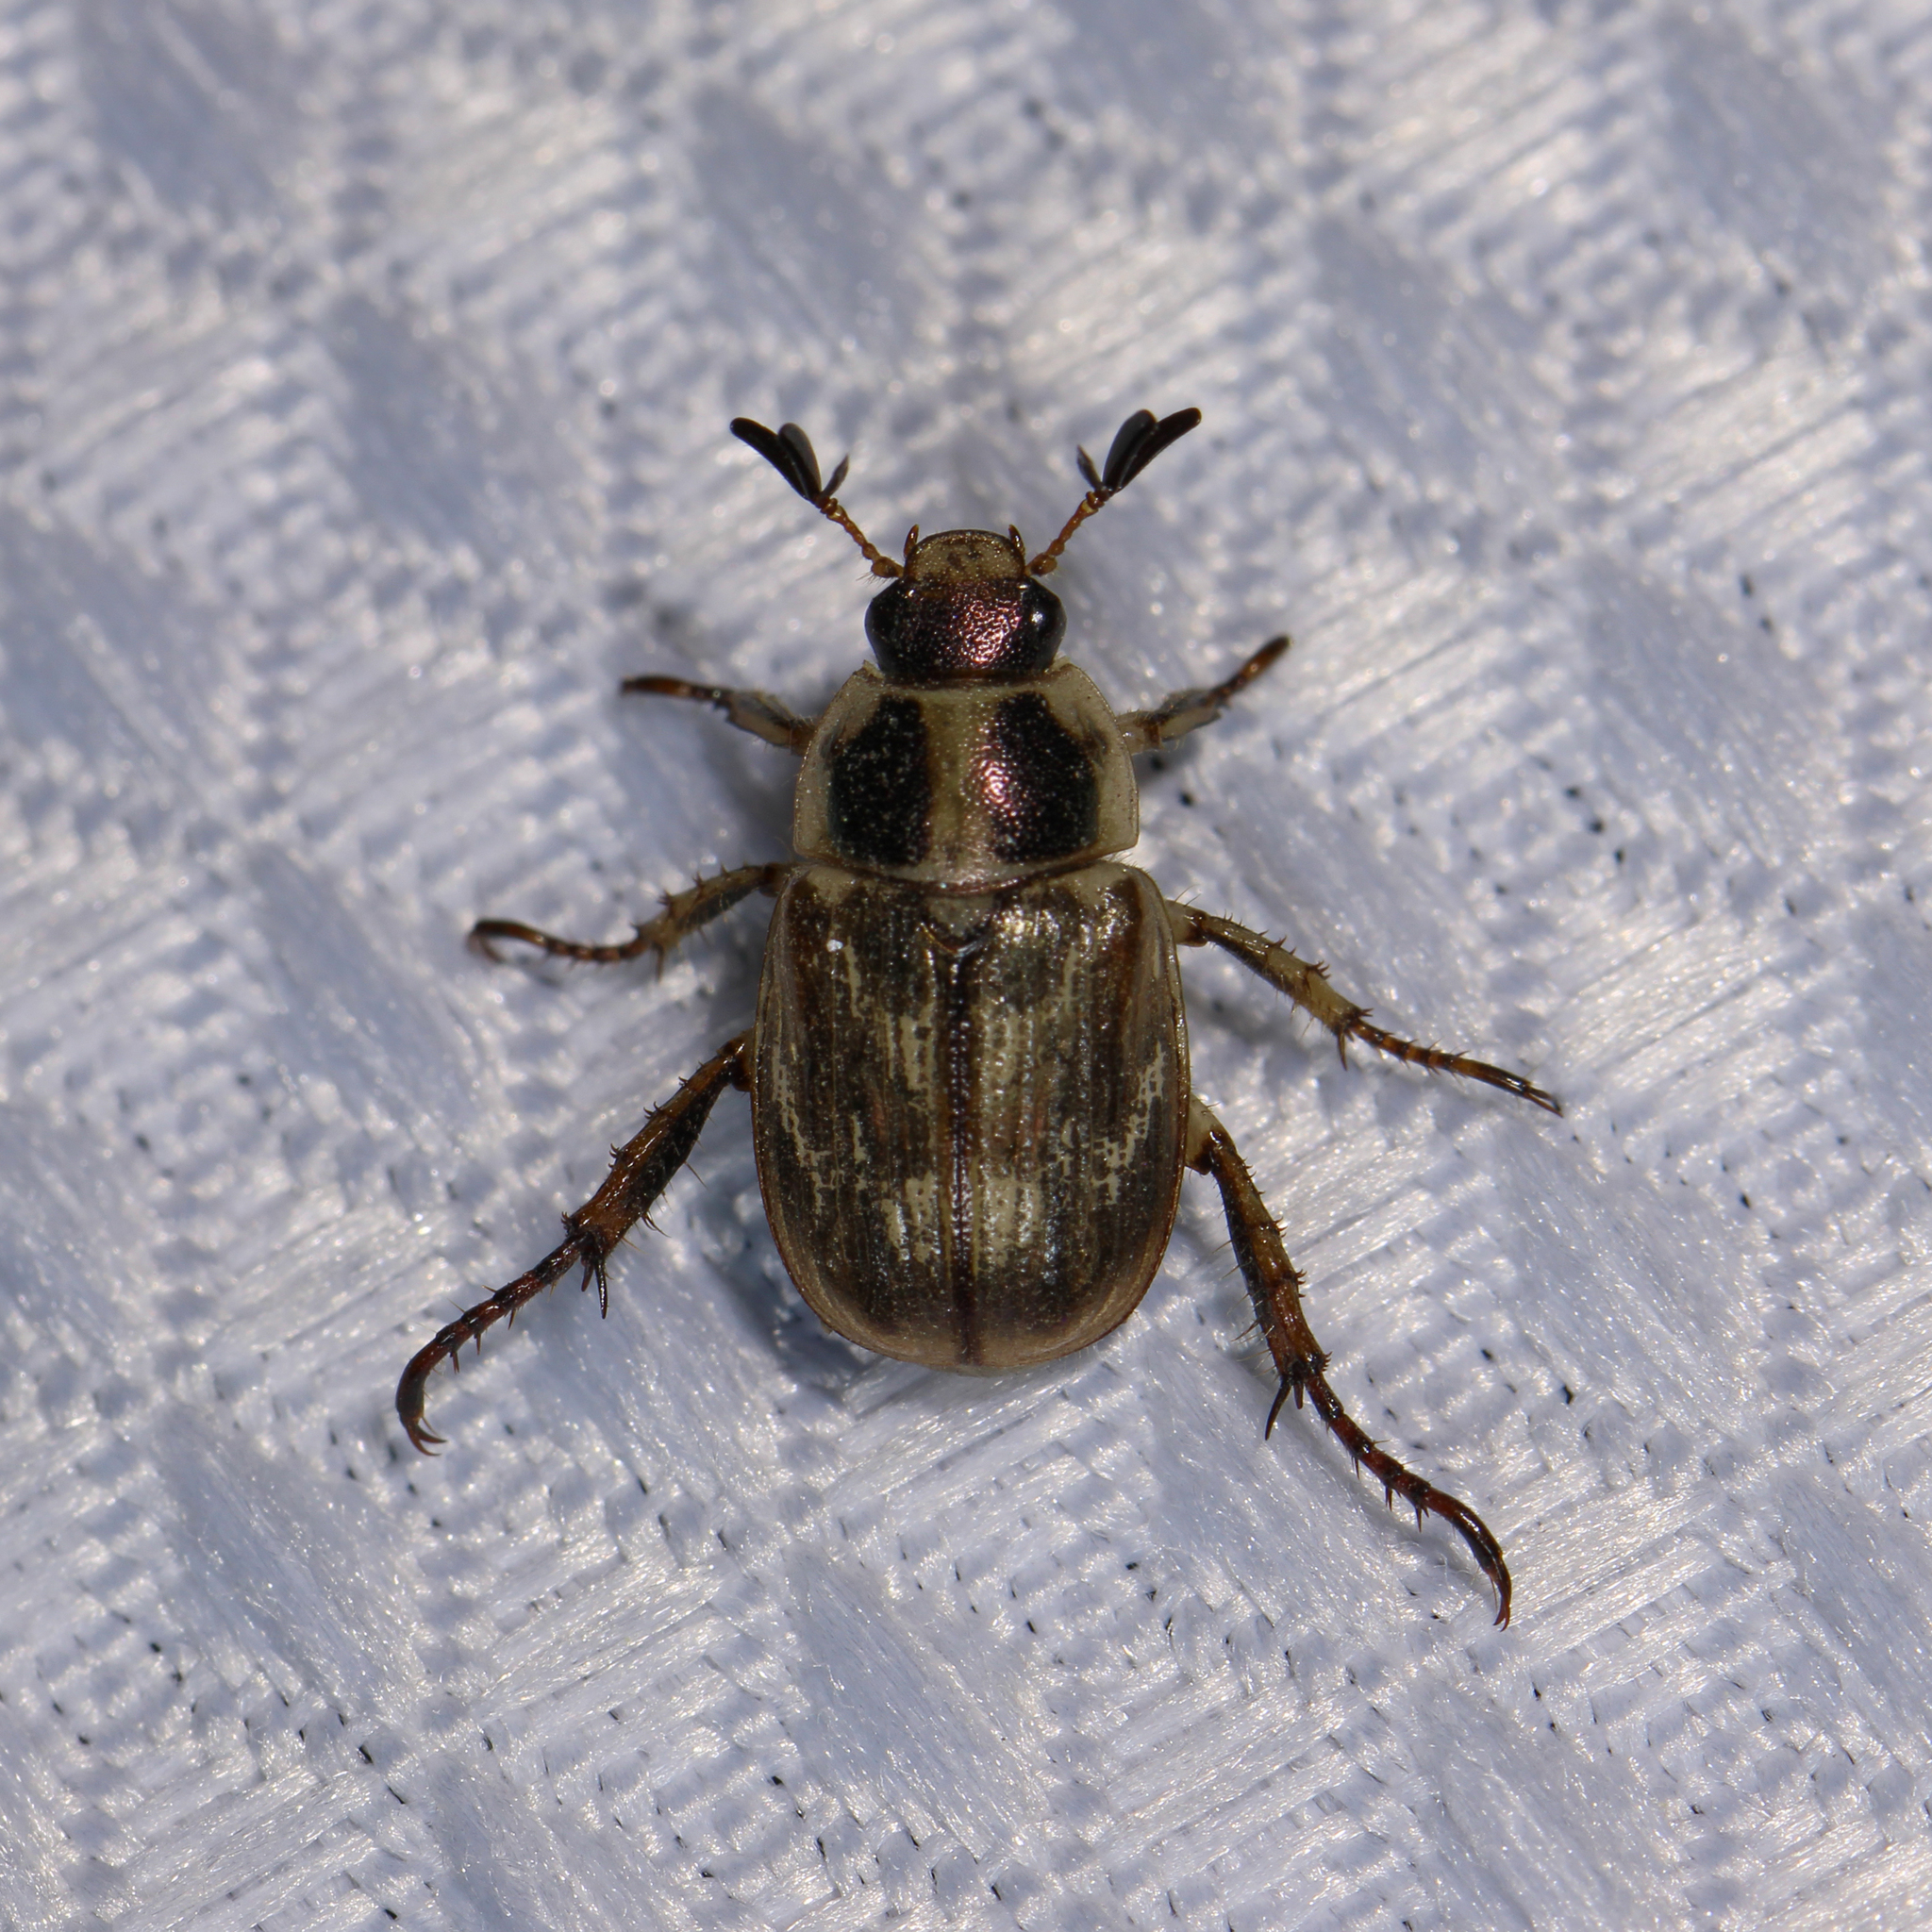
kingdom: Animalia
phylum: Arthropoda
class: Insecta
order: Coleoptera
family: Scarabaeidae
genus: Exomala
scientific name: Exomala orientalis
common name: Oriental beetle
